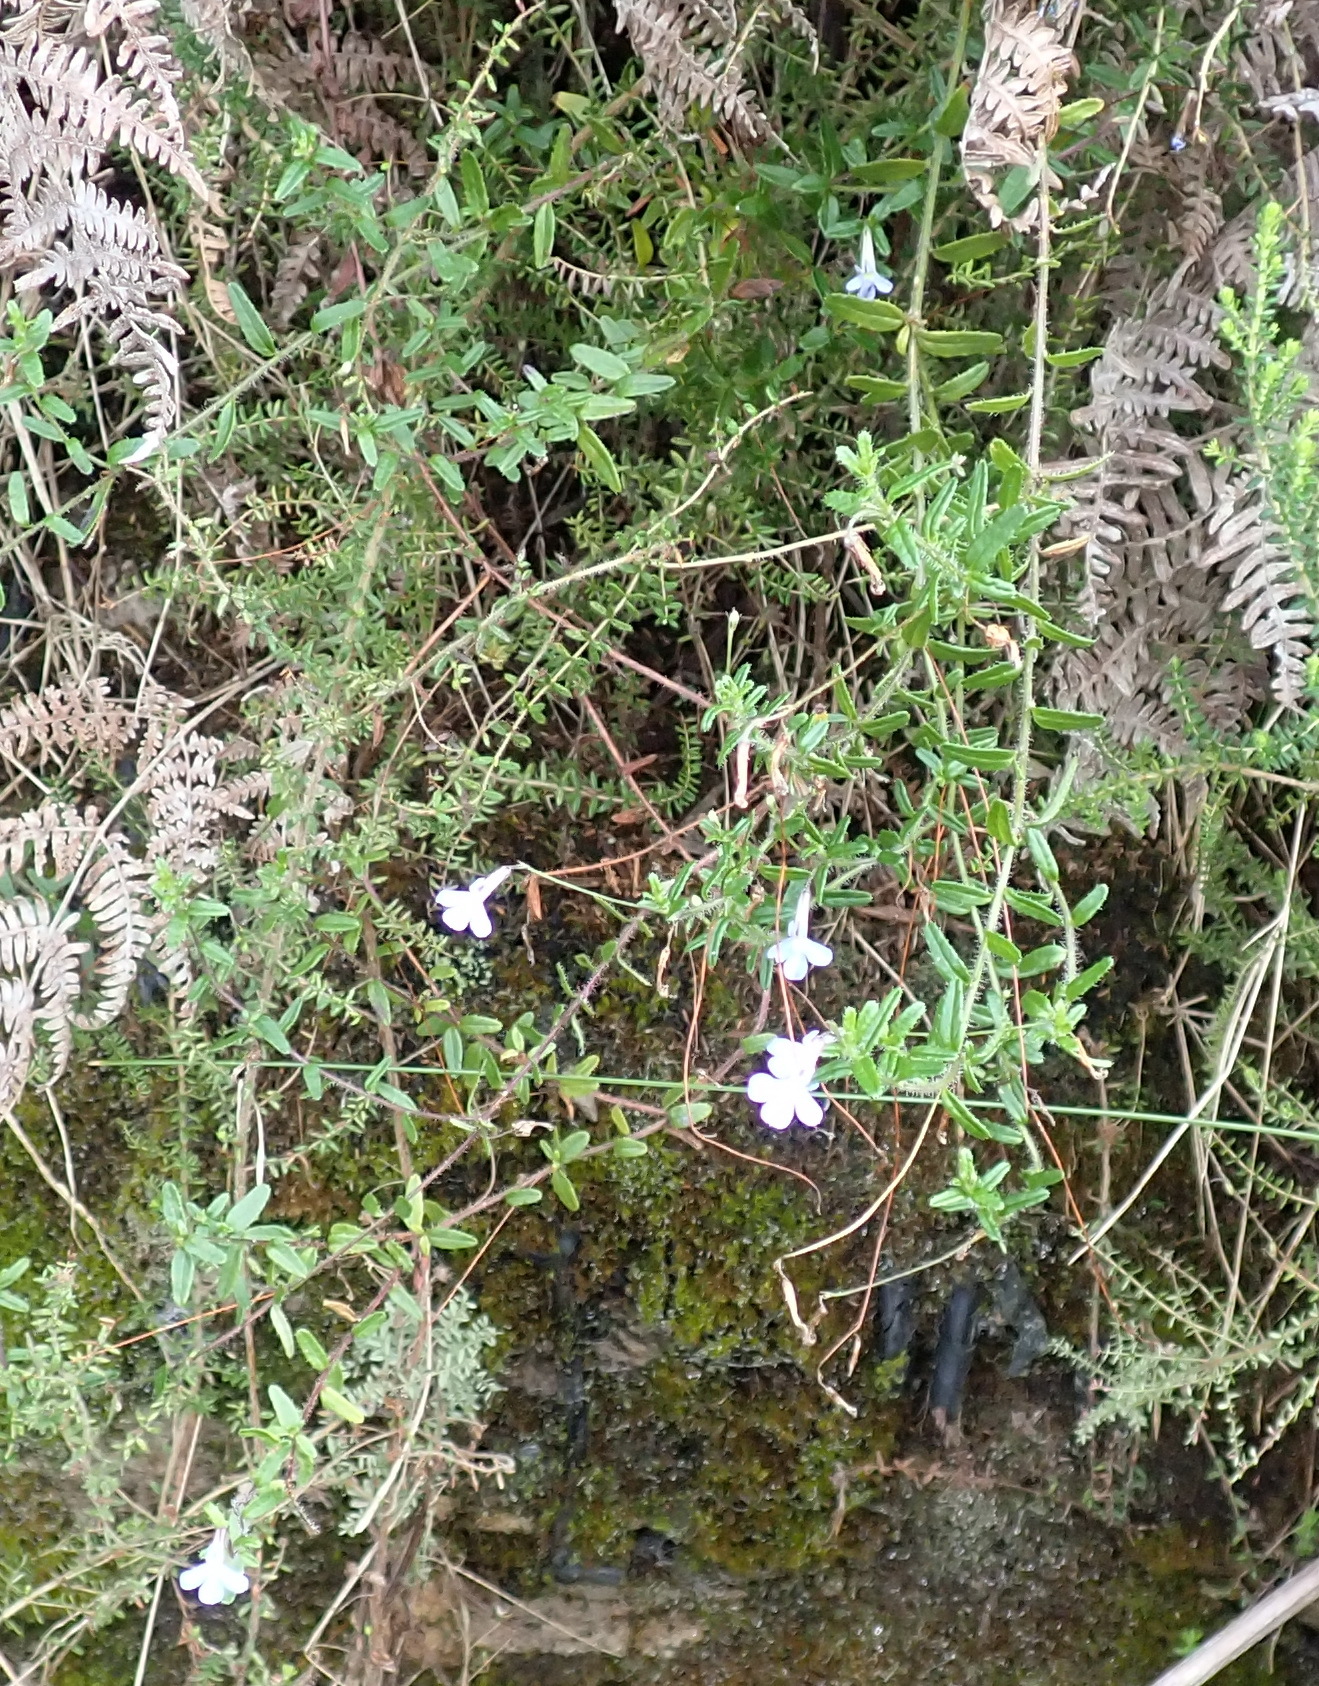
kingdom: Plantae
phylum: Tracheophyta
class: Magnoliopsida
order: Asterales
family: Campanulaceae
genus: Lobelia
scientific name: Lobelia neglecta
